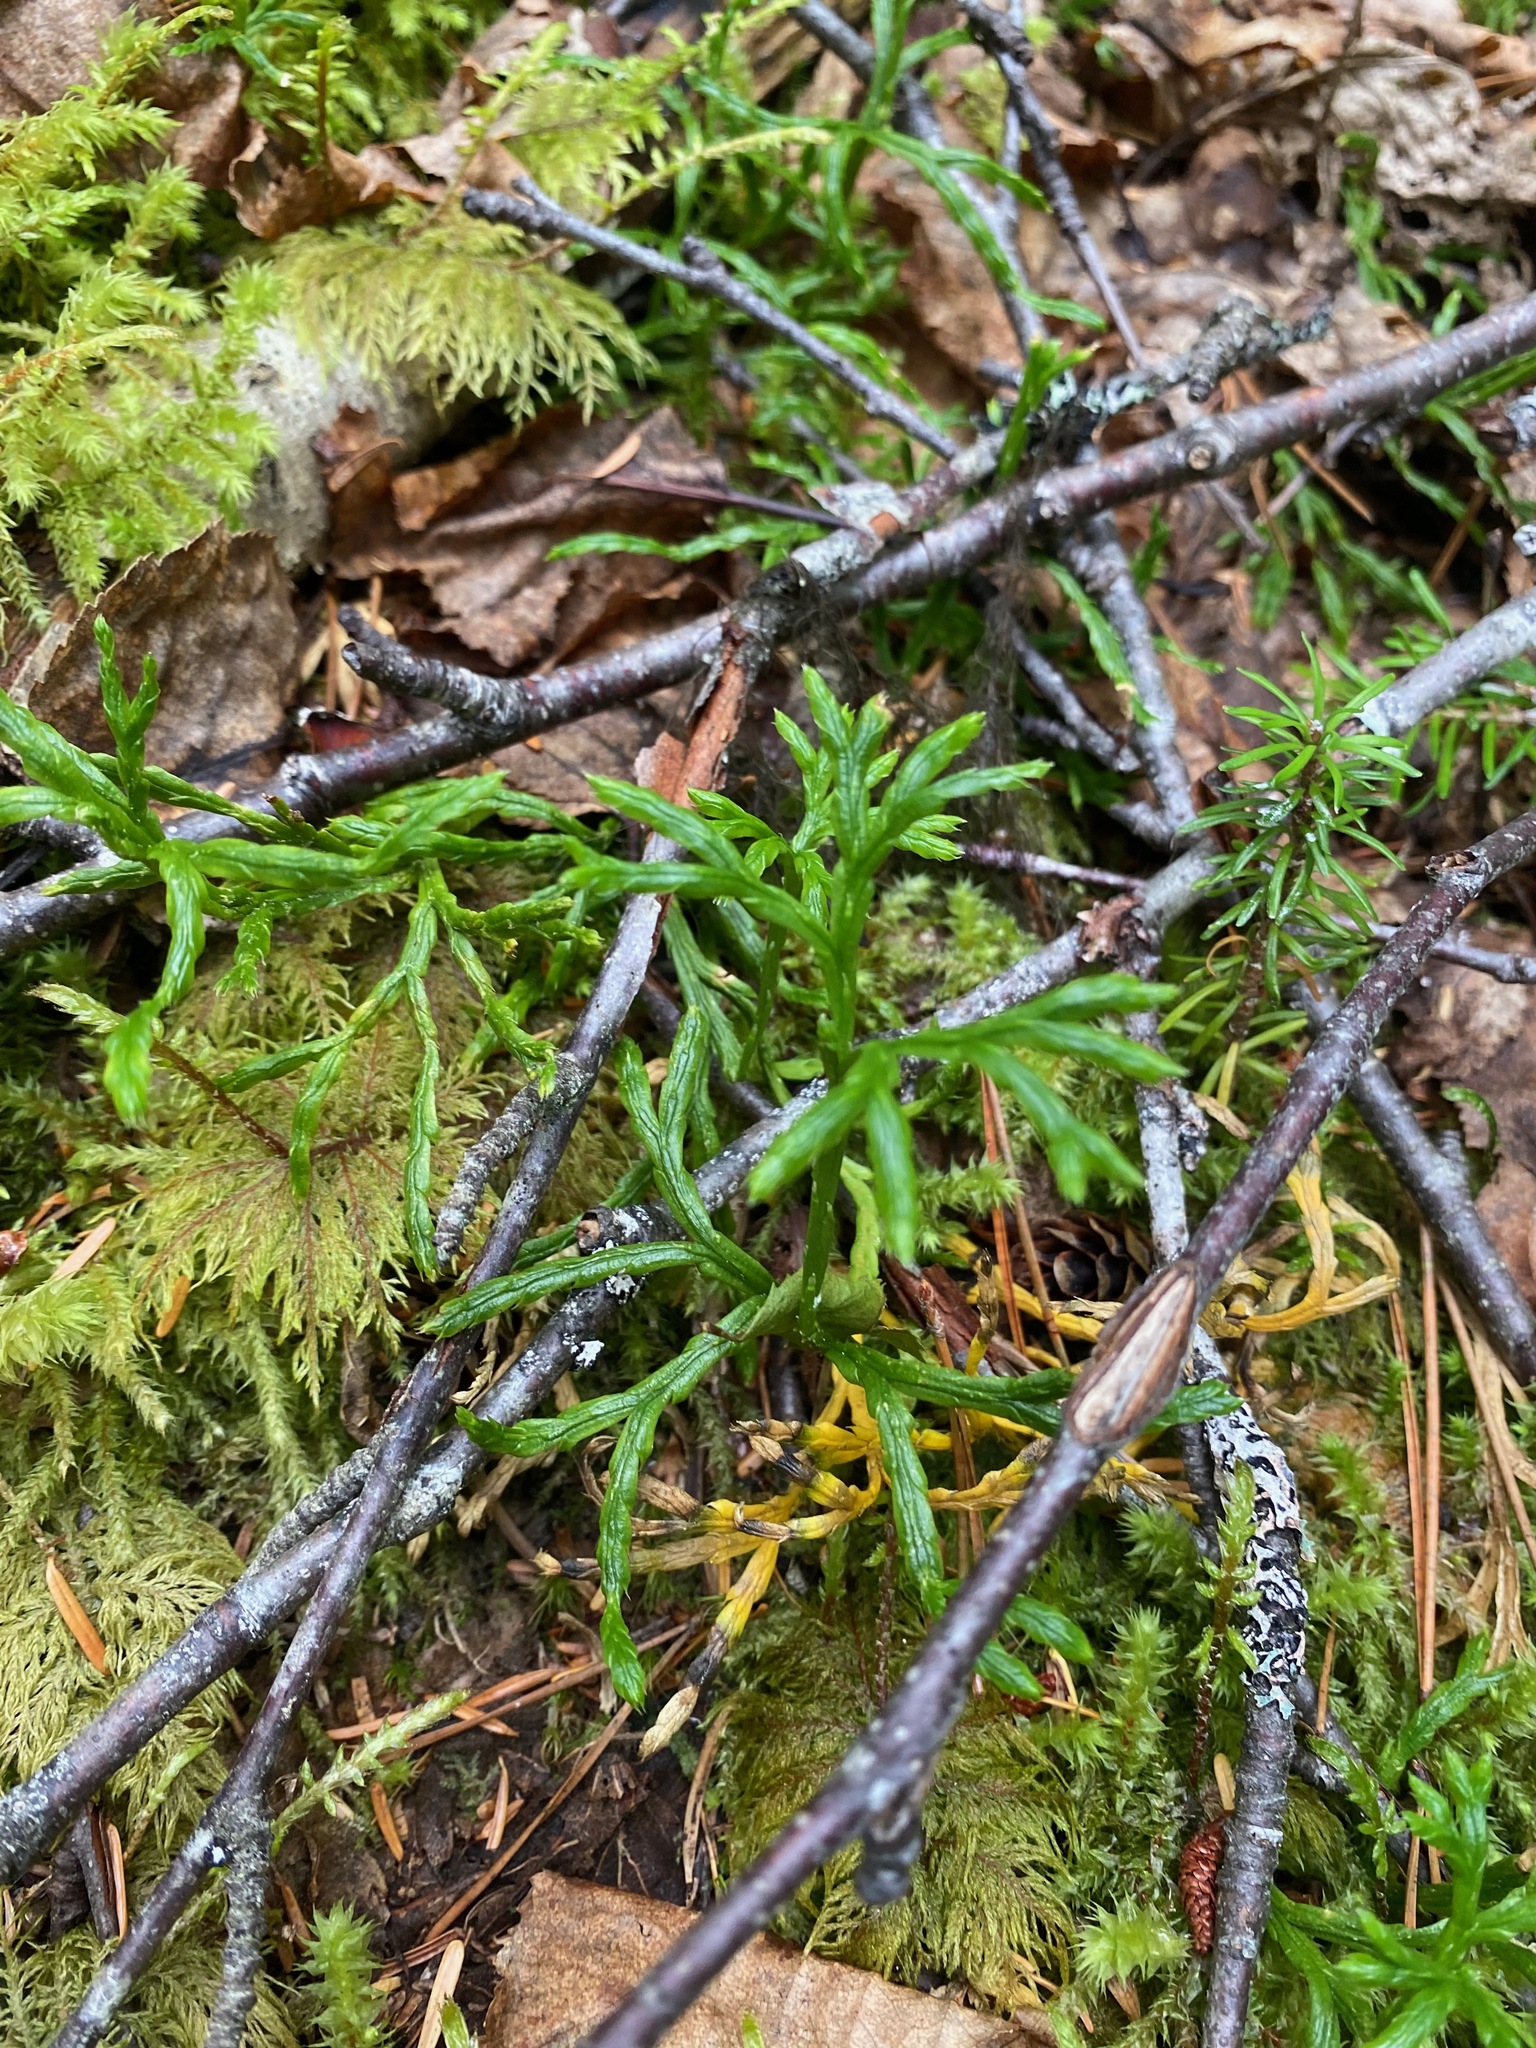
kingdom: Plantae
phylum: Tracheophyta
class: Lycopodiopsida
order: Lycopodiales
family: Lycopodiaceae
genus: Diphasiastrum
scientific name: Diphasiastrum complanatum
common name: Northern running-pine
